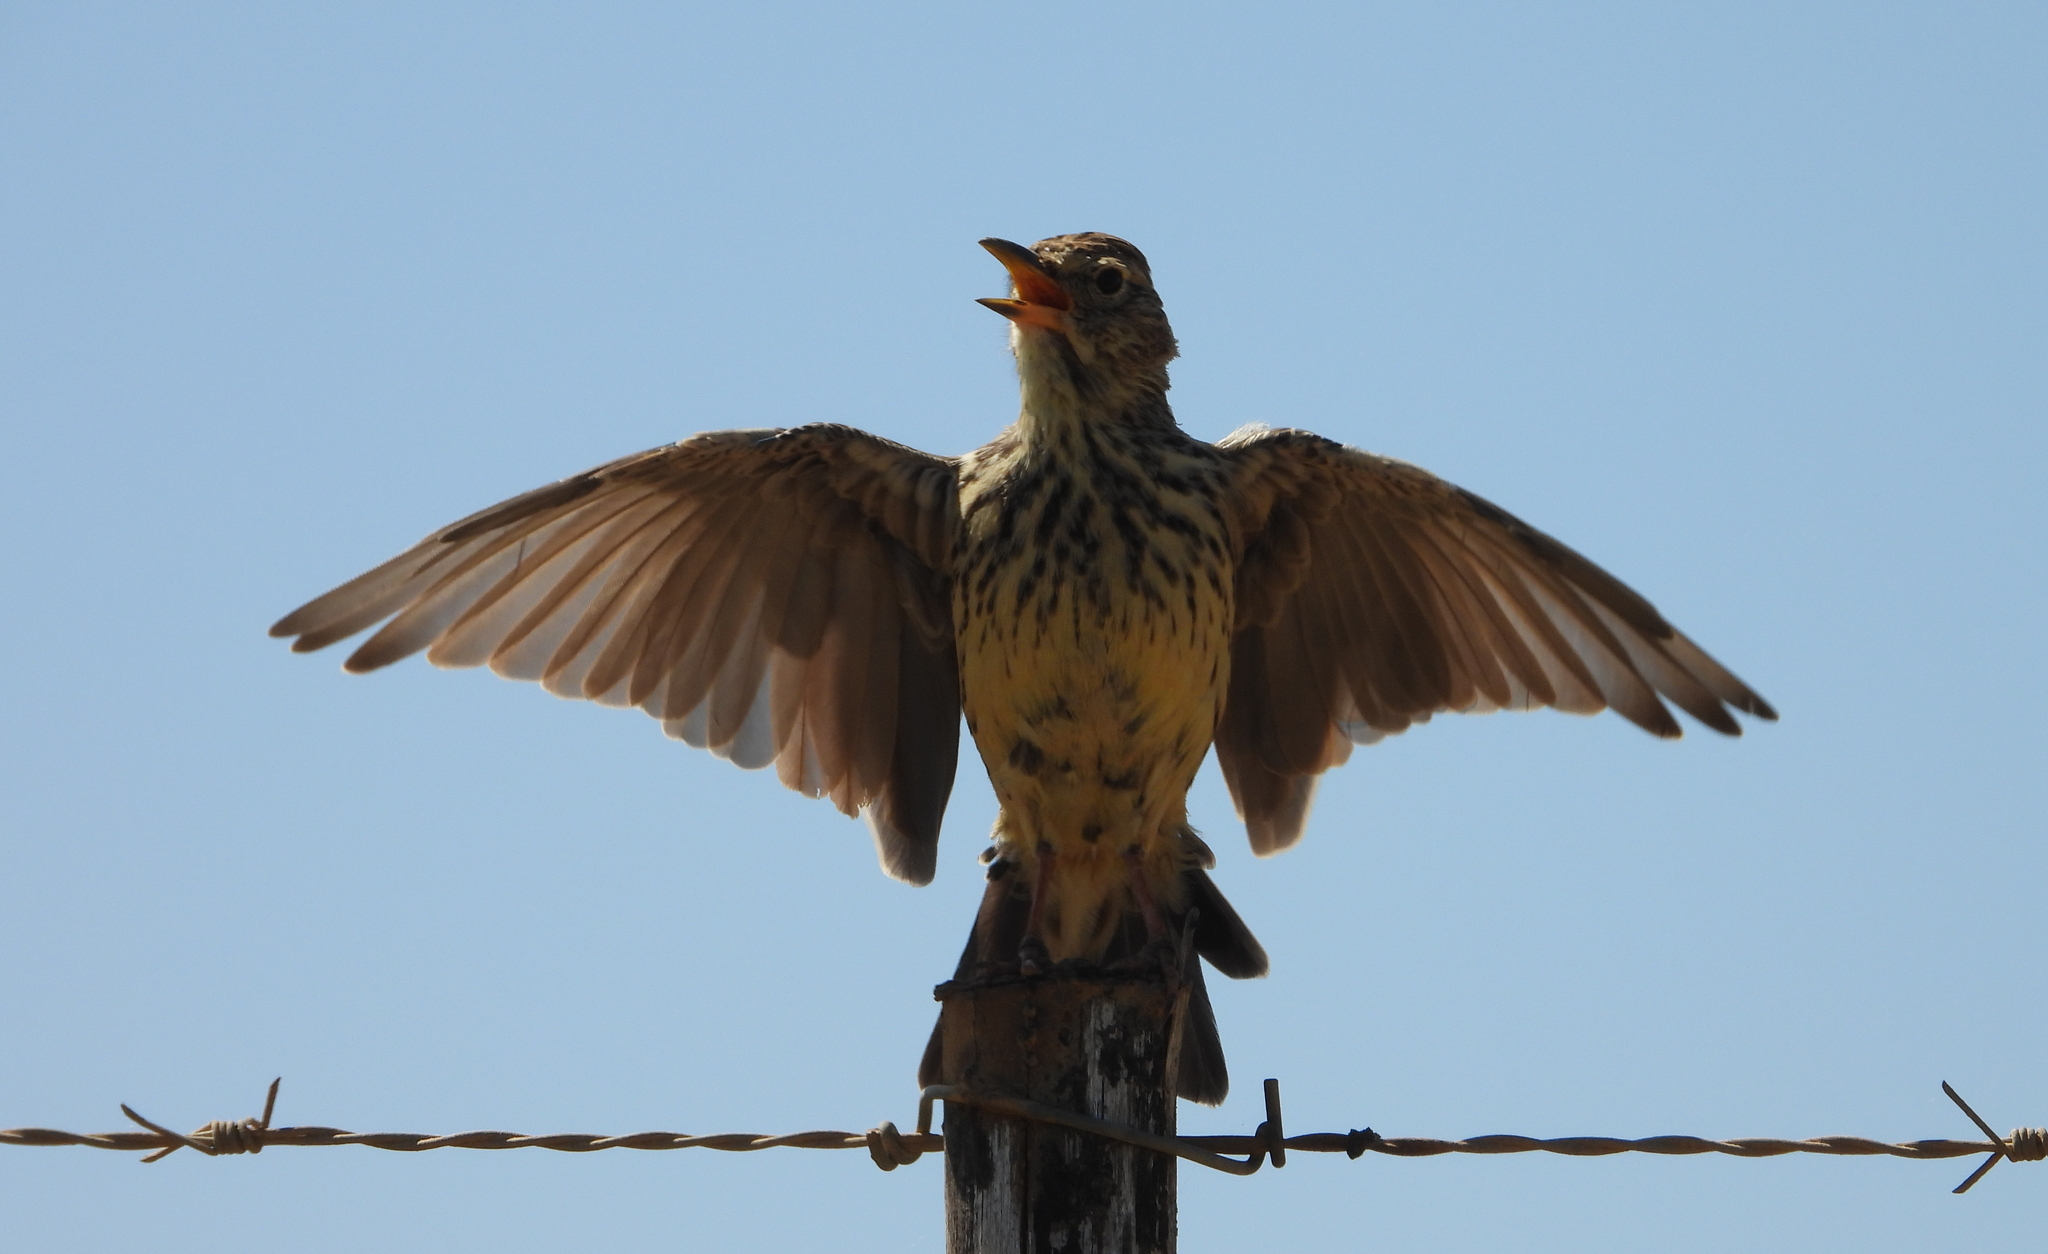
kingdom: Animalia
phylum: Chordata
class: Aves
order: Passeriformes
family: Alaudidae
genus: Galerida
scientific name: Galerida magnirostris
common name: Large-billed lark
